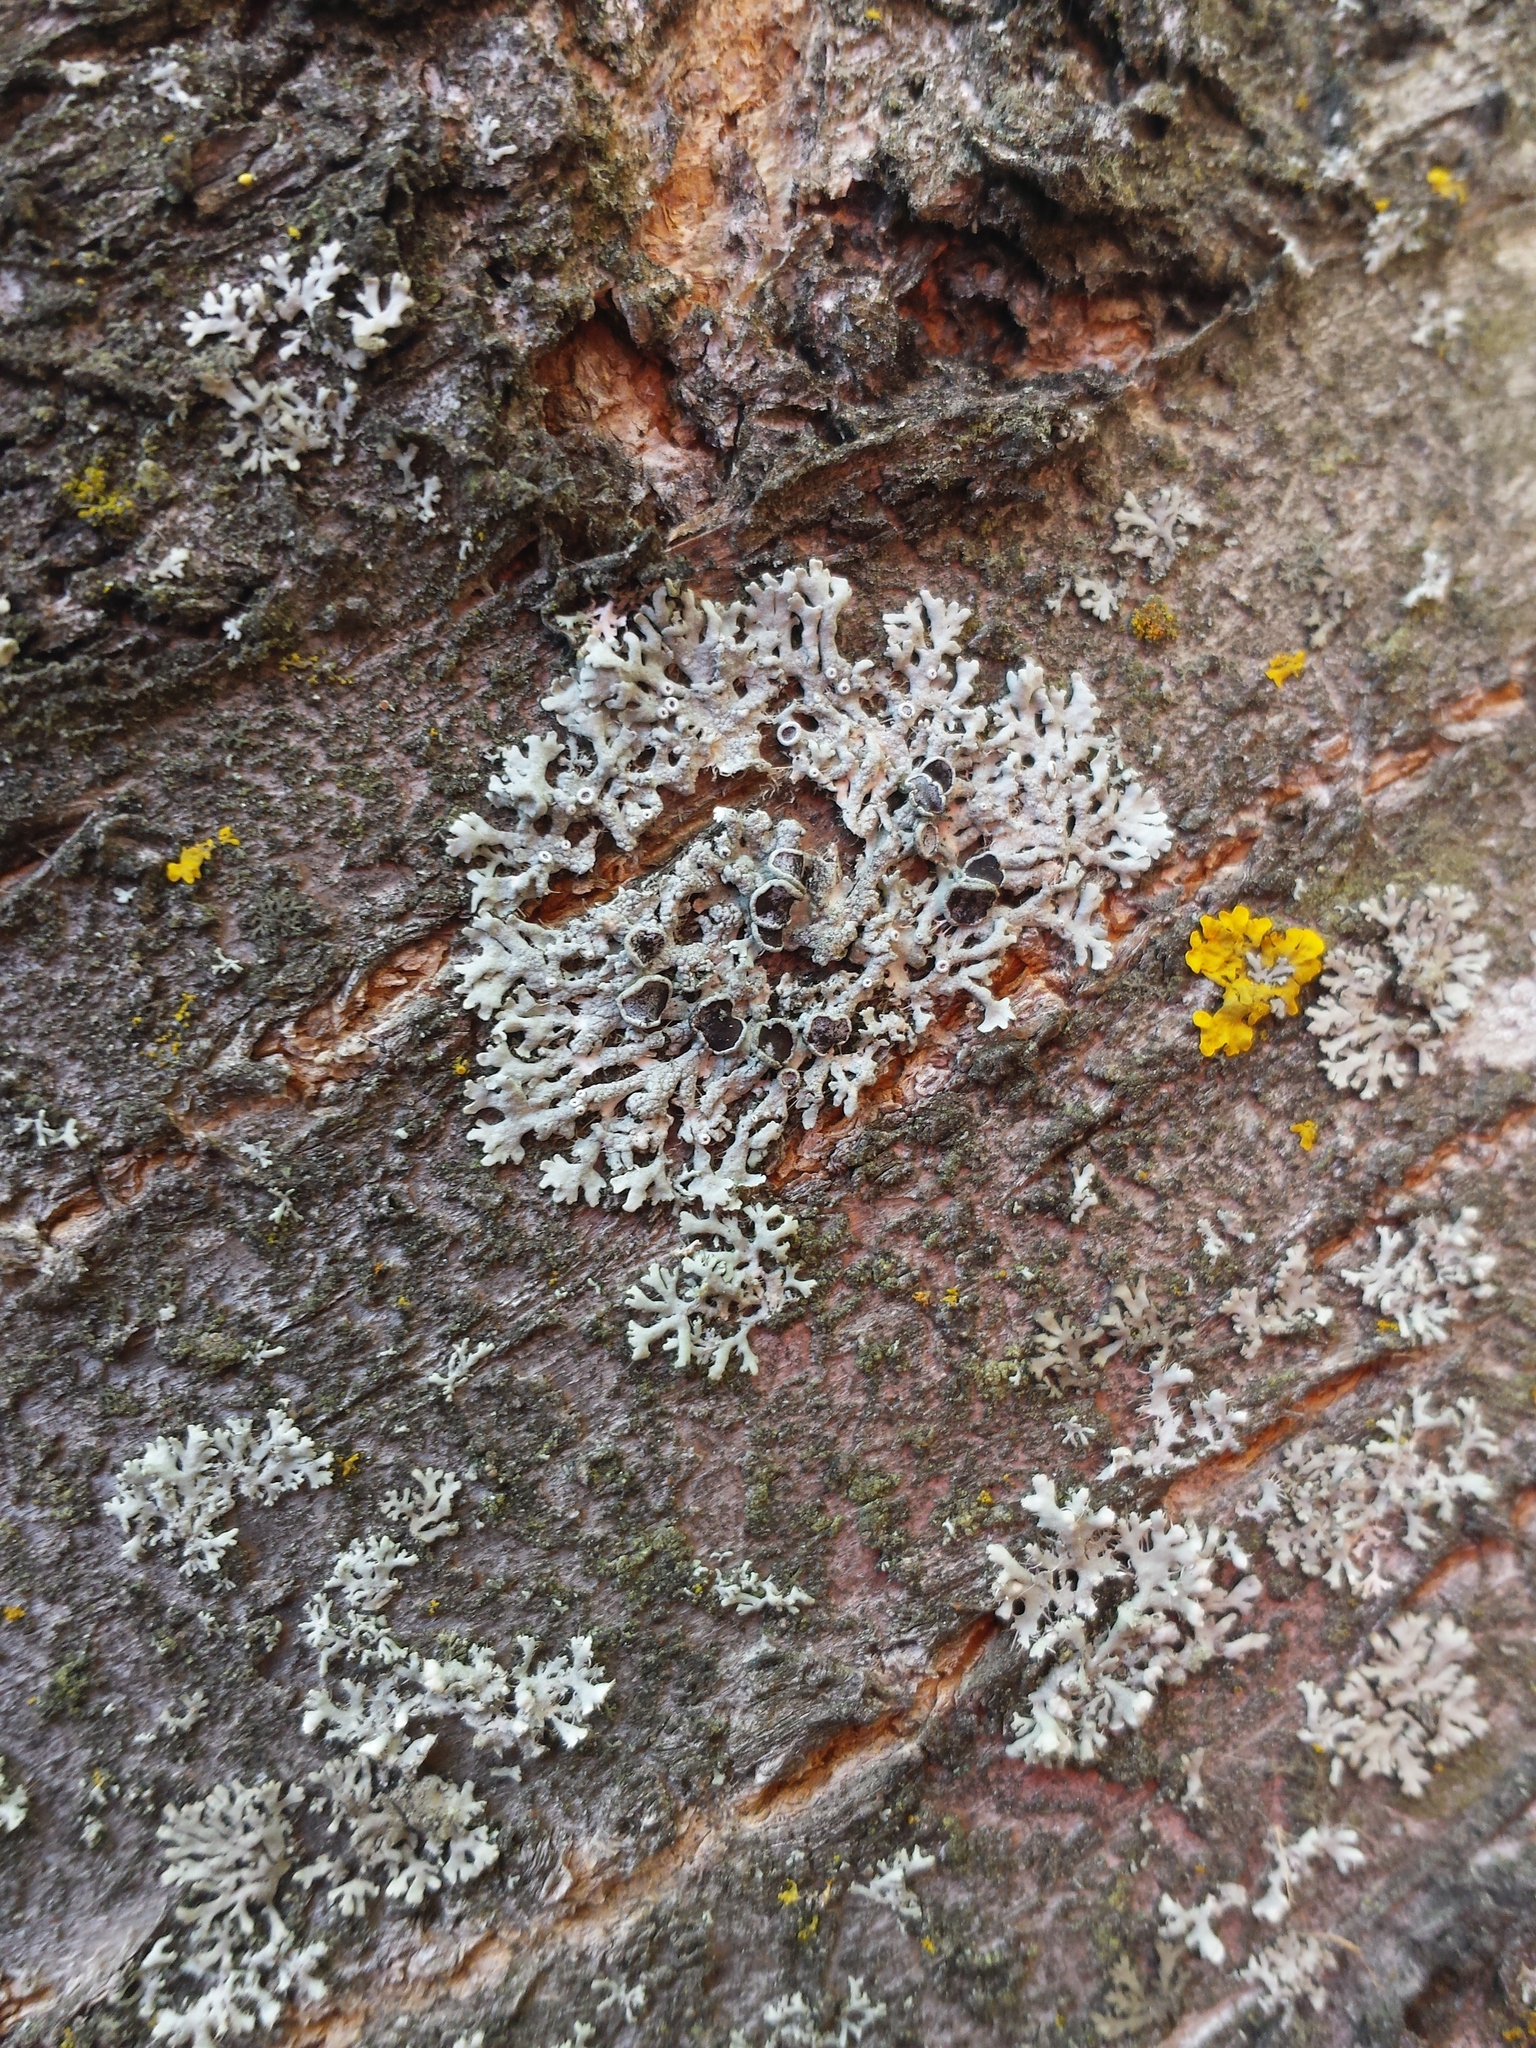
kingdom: Fungi
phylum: Ascomycota
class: Lecanoromycetes
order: Caliciales
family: Physciaceae
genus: Physcia
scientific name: Physcia aipolia
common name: Hoary rosette lichen
